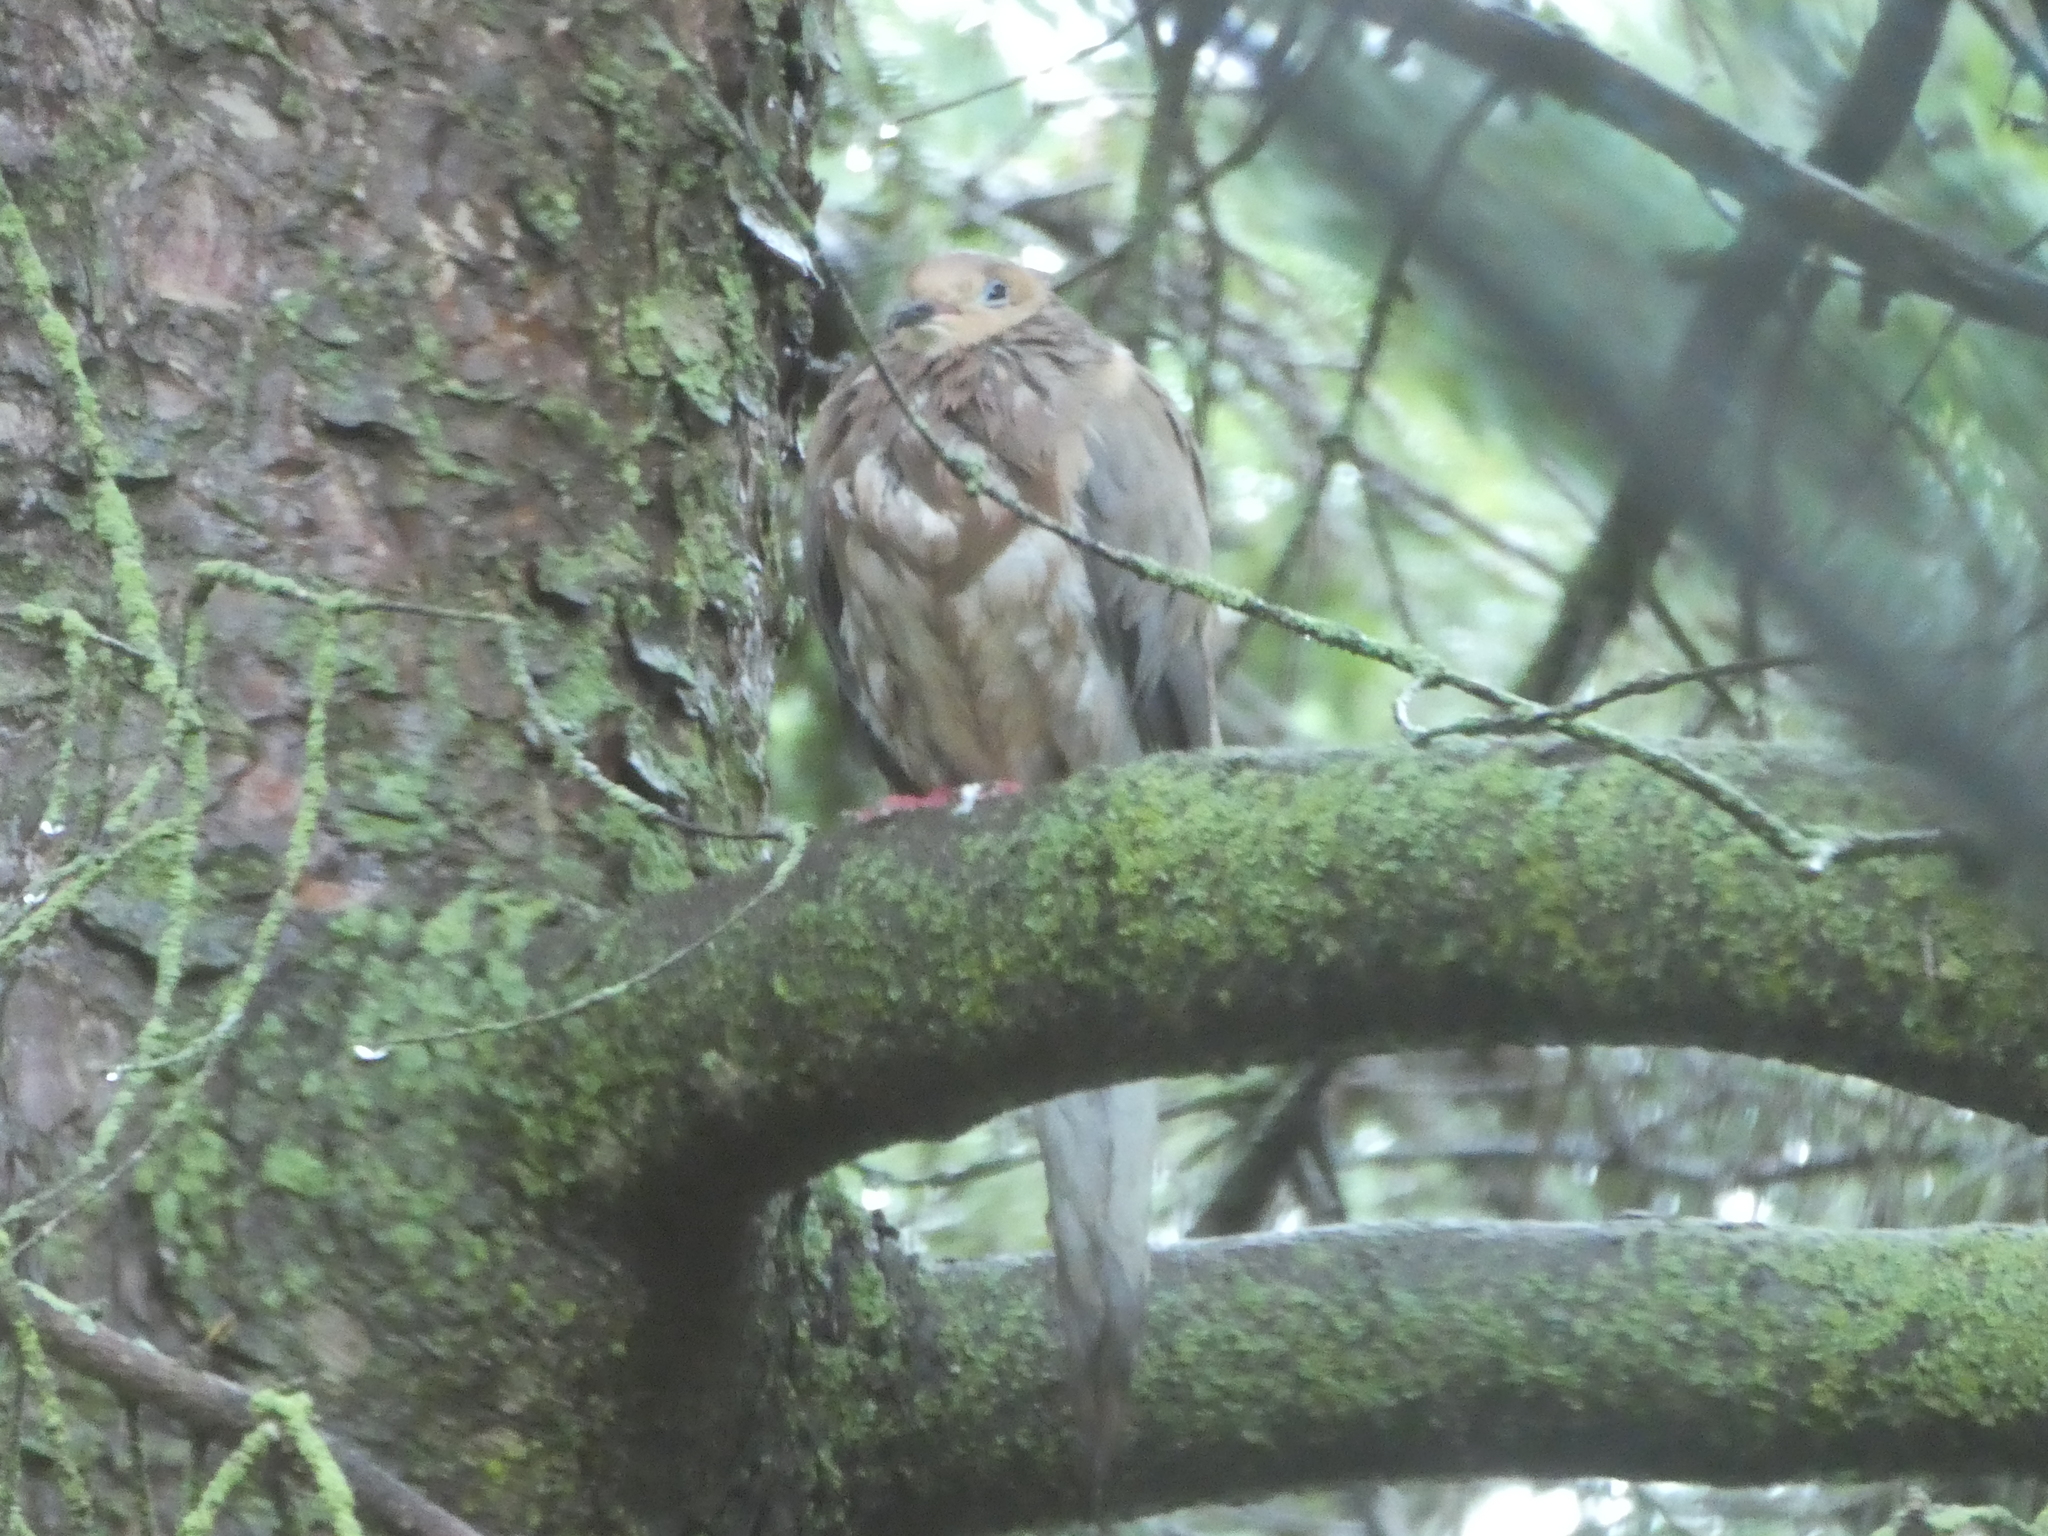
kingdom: Animalia
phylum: Chordata
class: Aves
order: Columbiformes
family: Columbidae
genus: Zenaida
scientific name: Zenaida macroura
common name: Mourning dove
